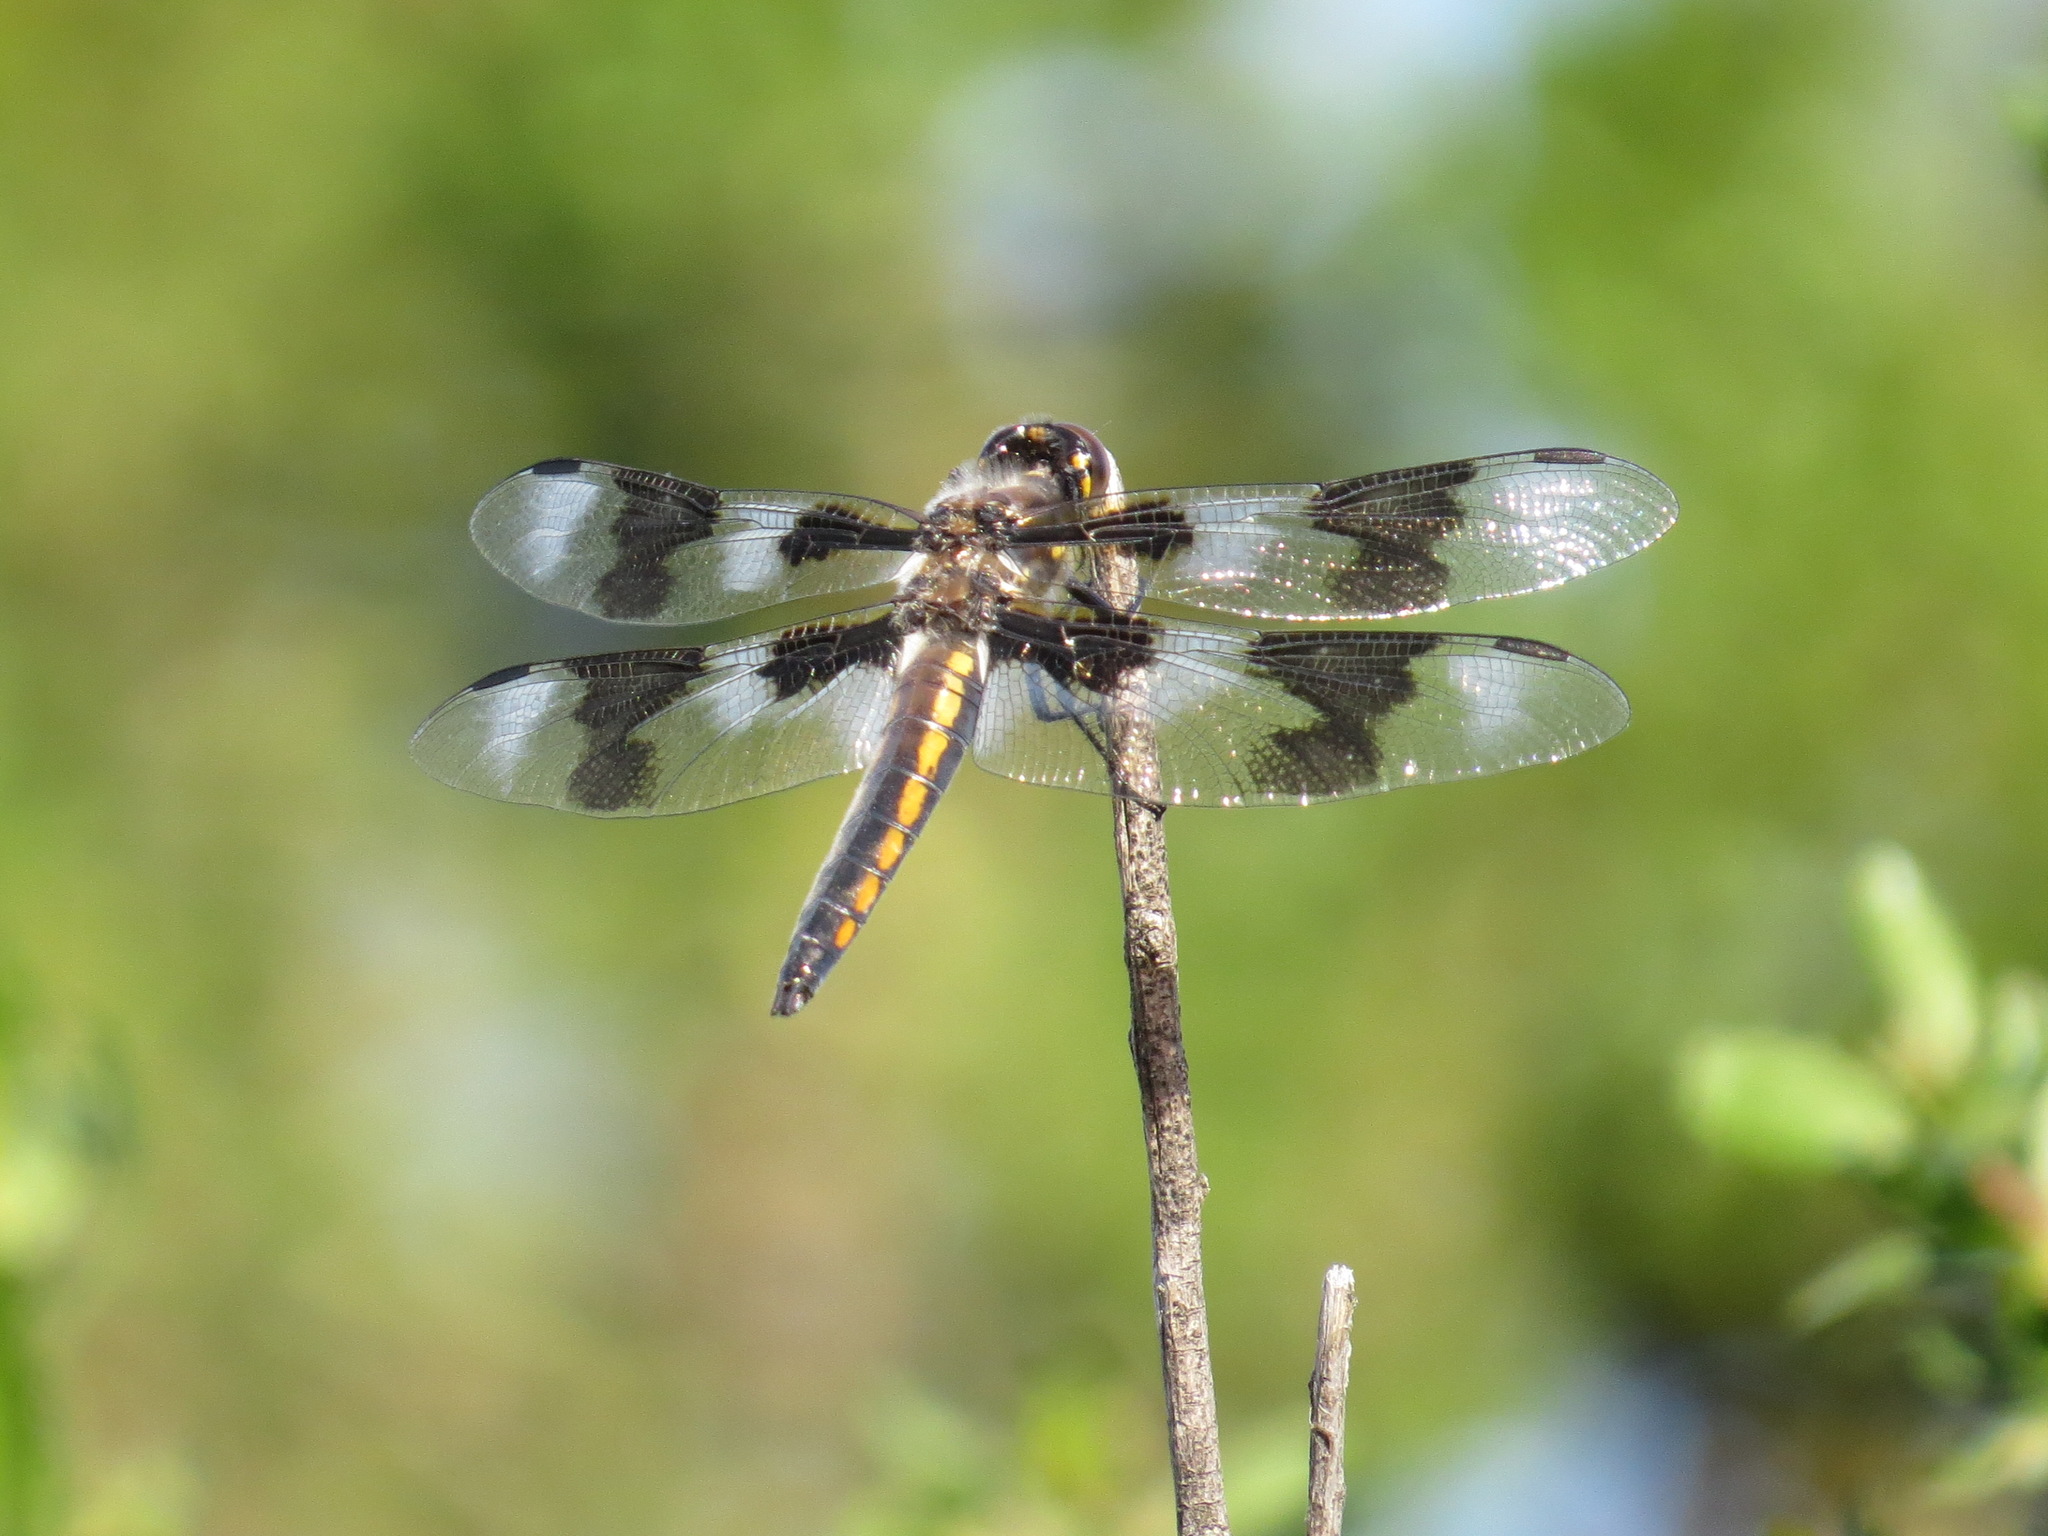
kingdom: Animalia
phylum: Arthropoda
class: Insecta
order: Odonata
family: Libellulidae
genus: Libellula
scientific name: Libellula forensis
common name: Eight-spotted skimmer
